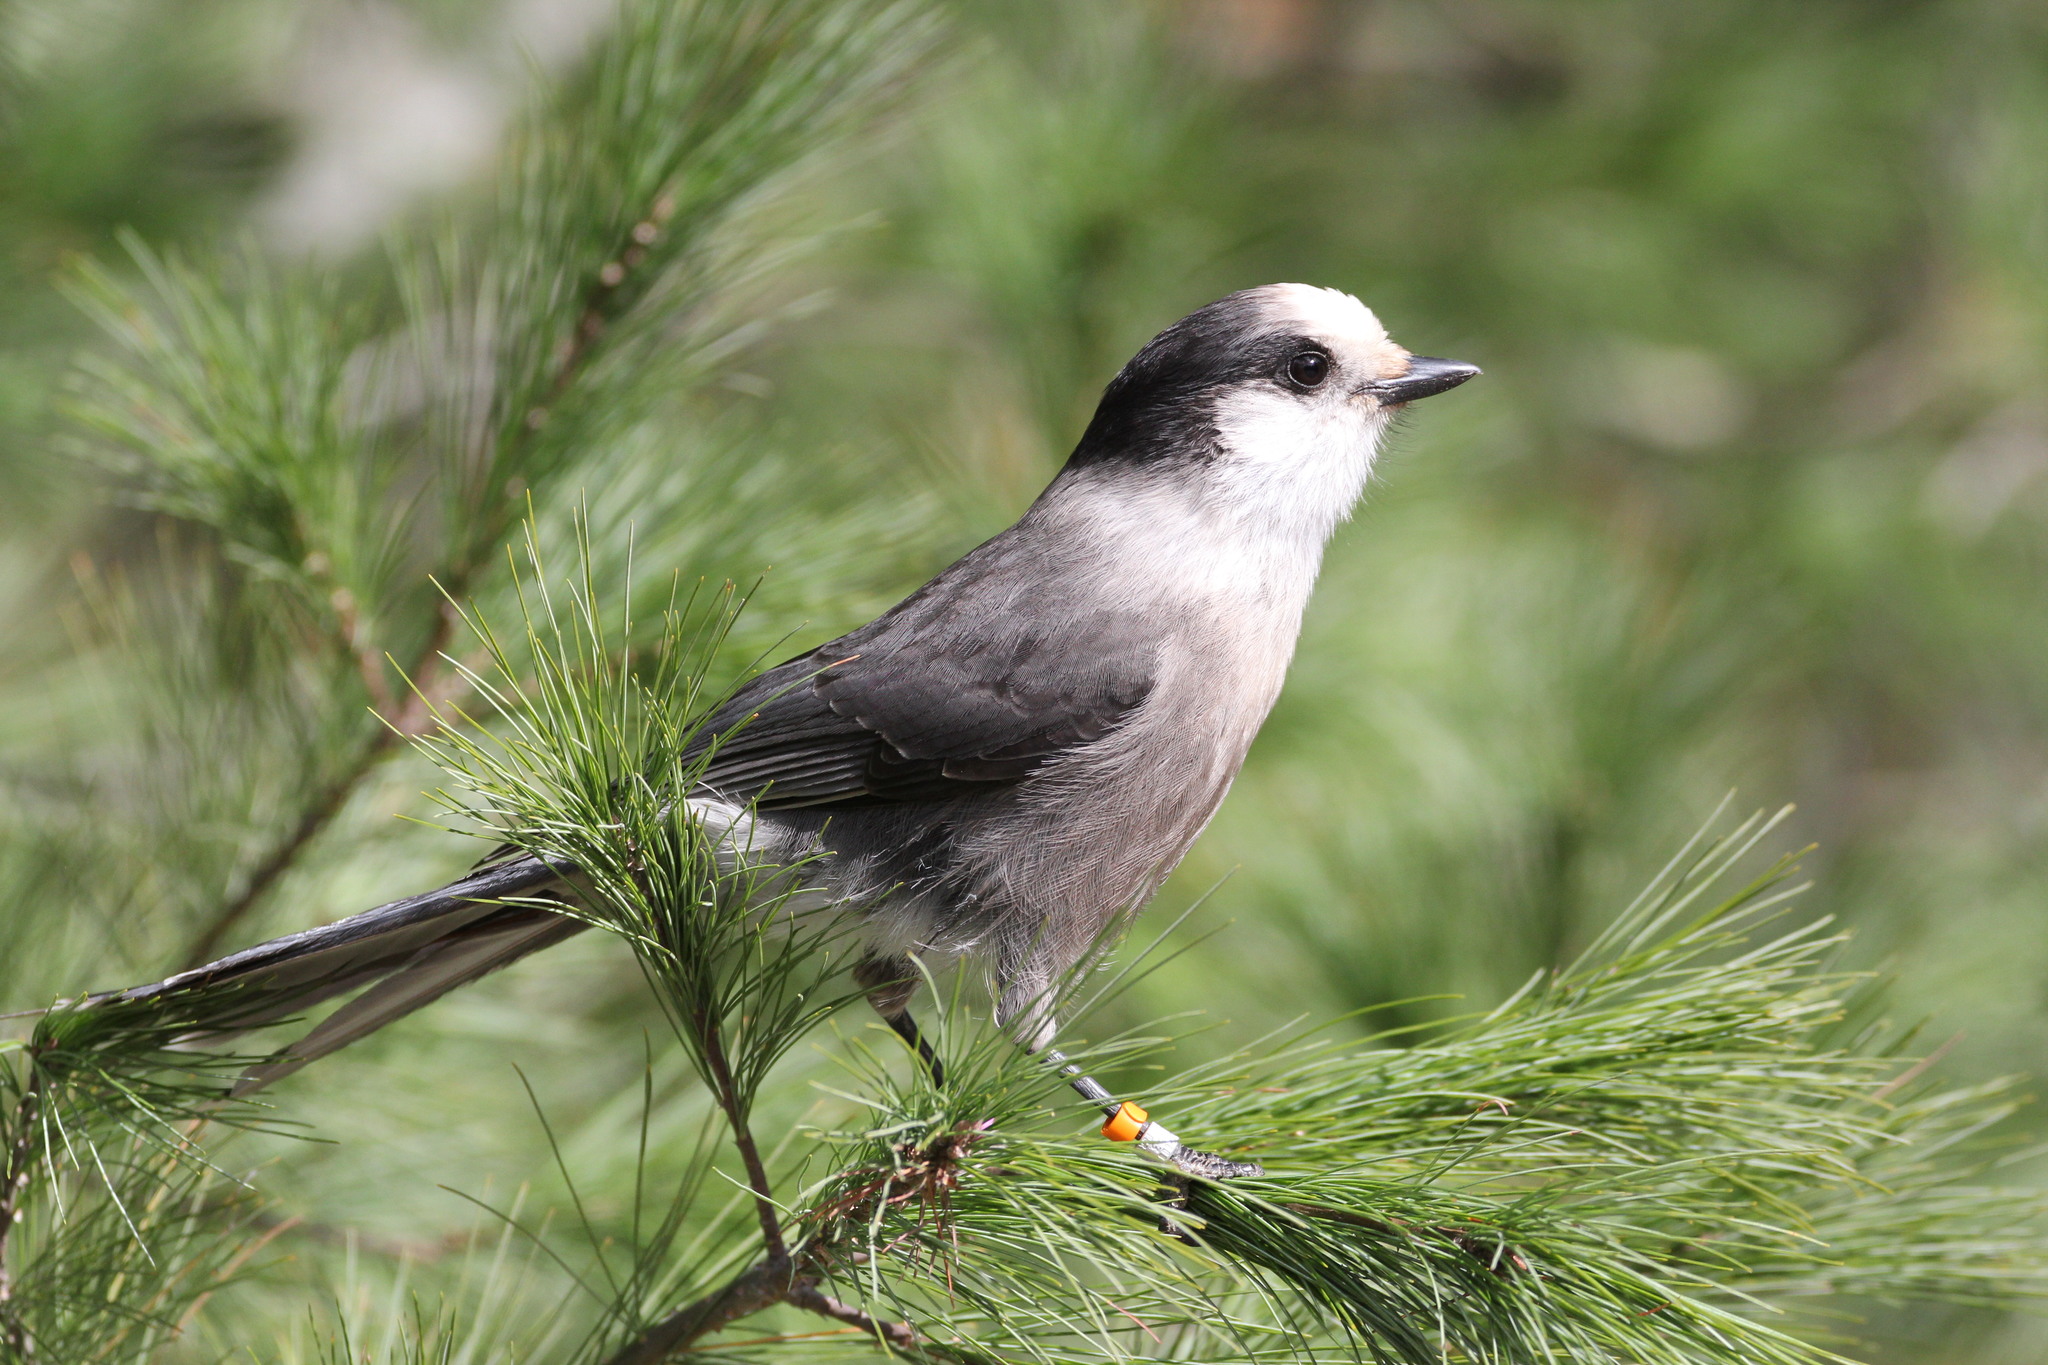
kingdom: Animalia
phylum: Chordata
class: Aves
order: Passeriformes
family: Corvidae
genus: Perisoreus
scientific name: Perisoreus canadensis
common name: Gray jay
